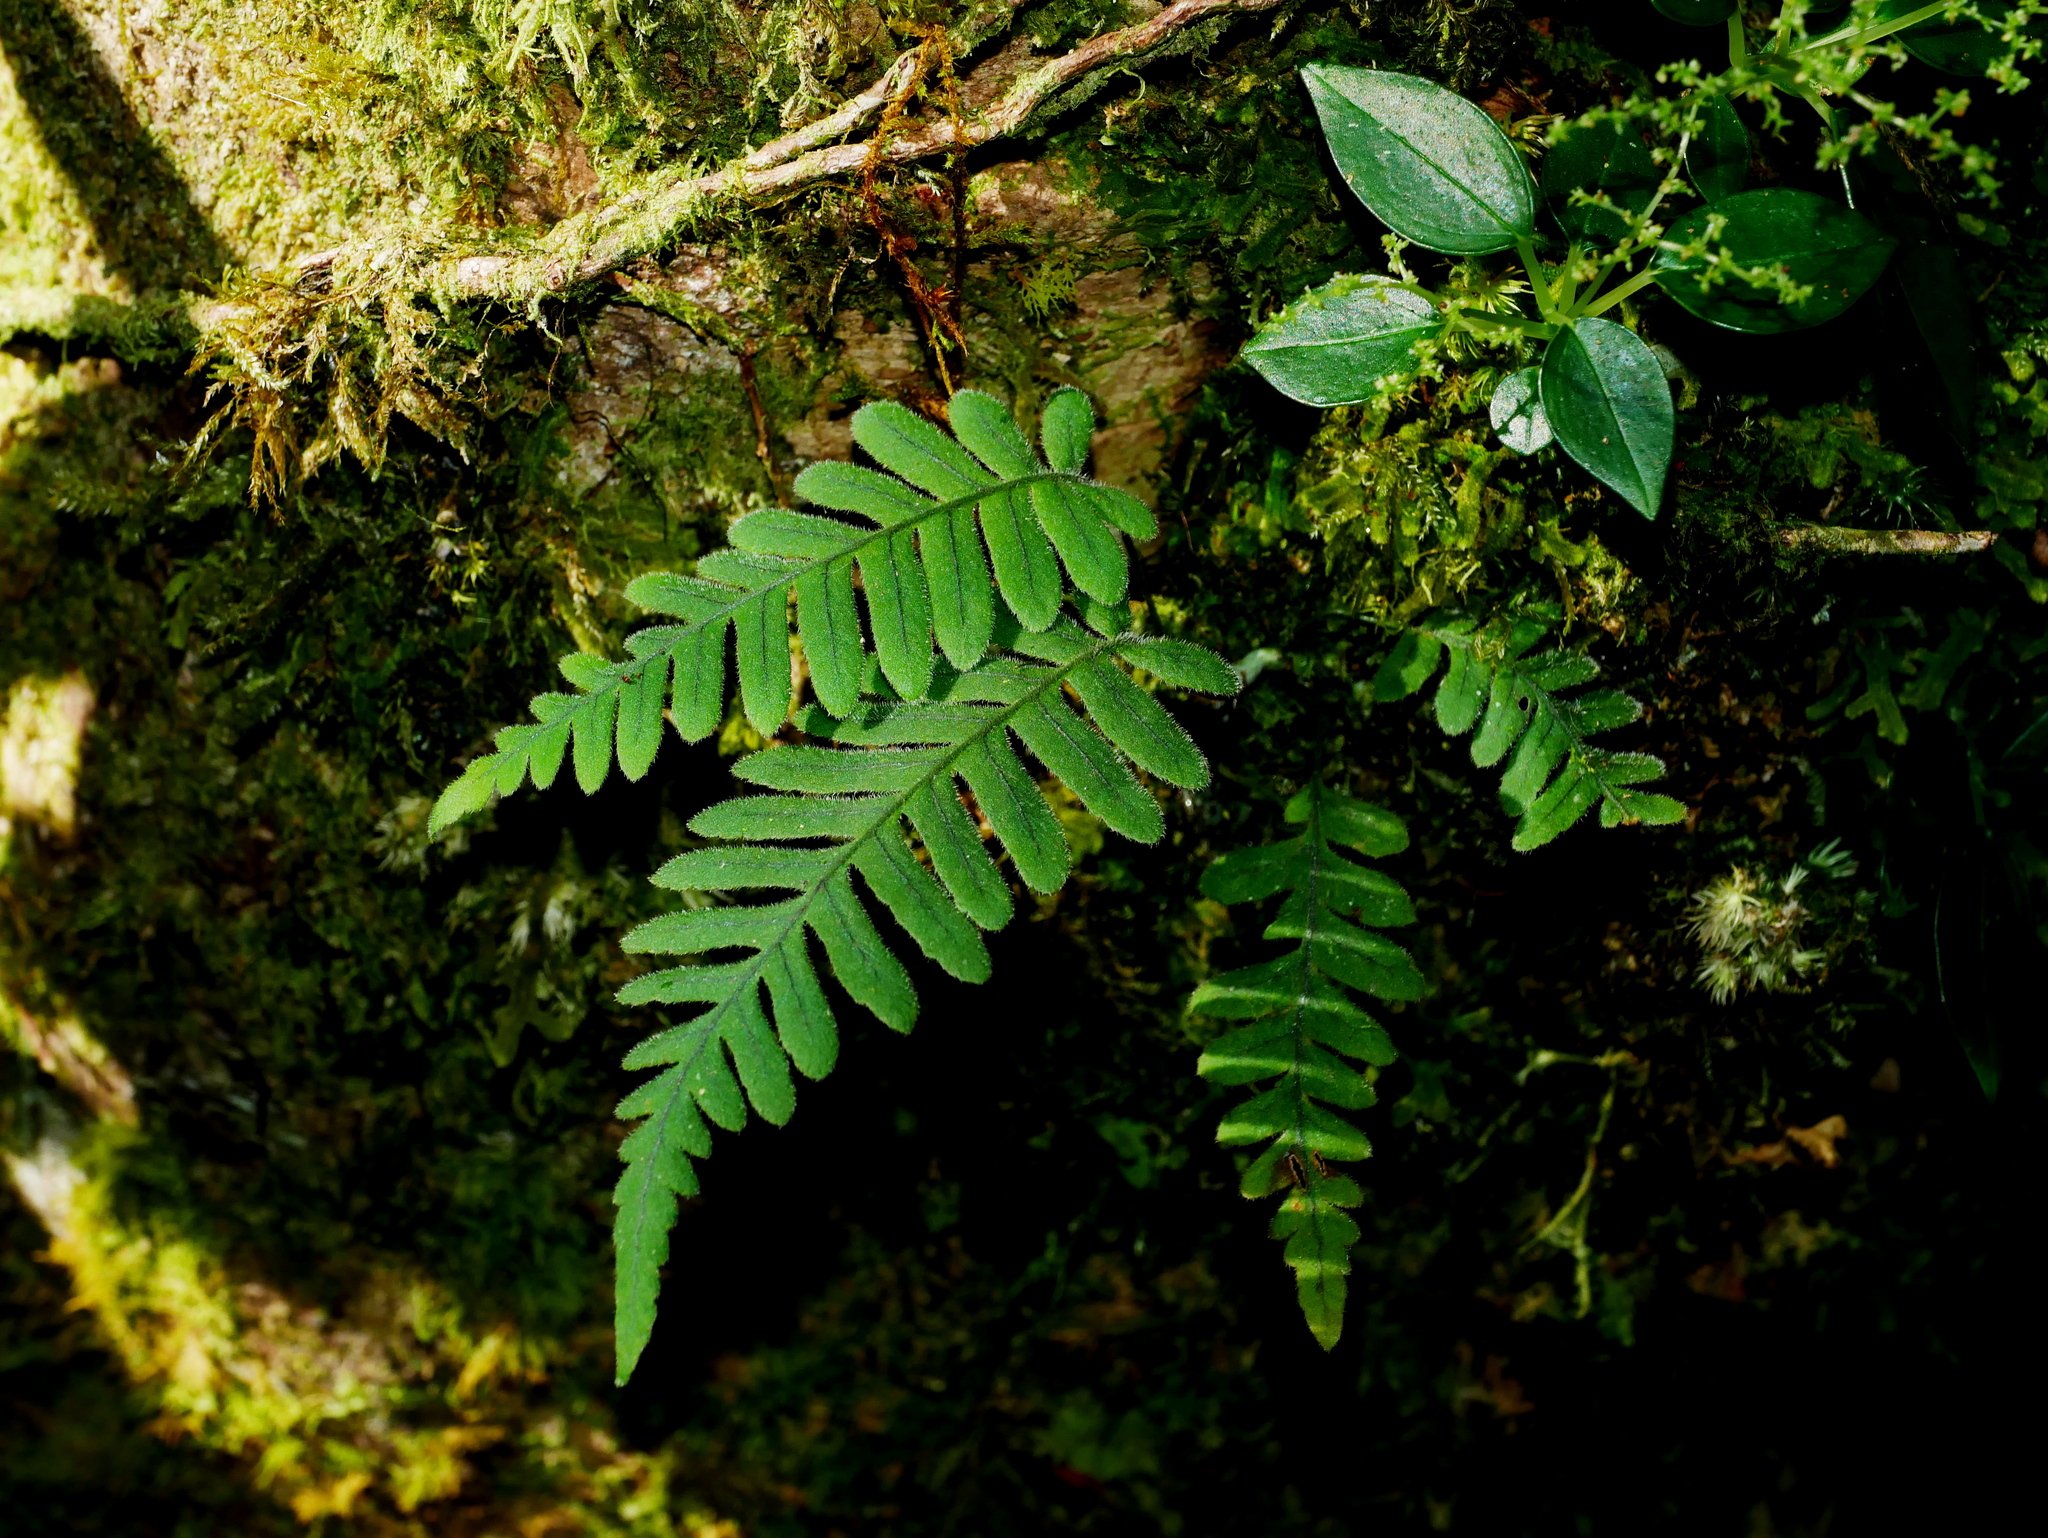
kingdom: Plantae
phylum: Tracheophyta
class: Polypodiopsida
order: Polypodiales
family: Polypodiaceae
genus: Goniophlebium
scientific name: Goniophlebium formosanum
